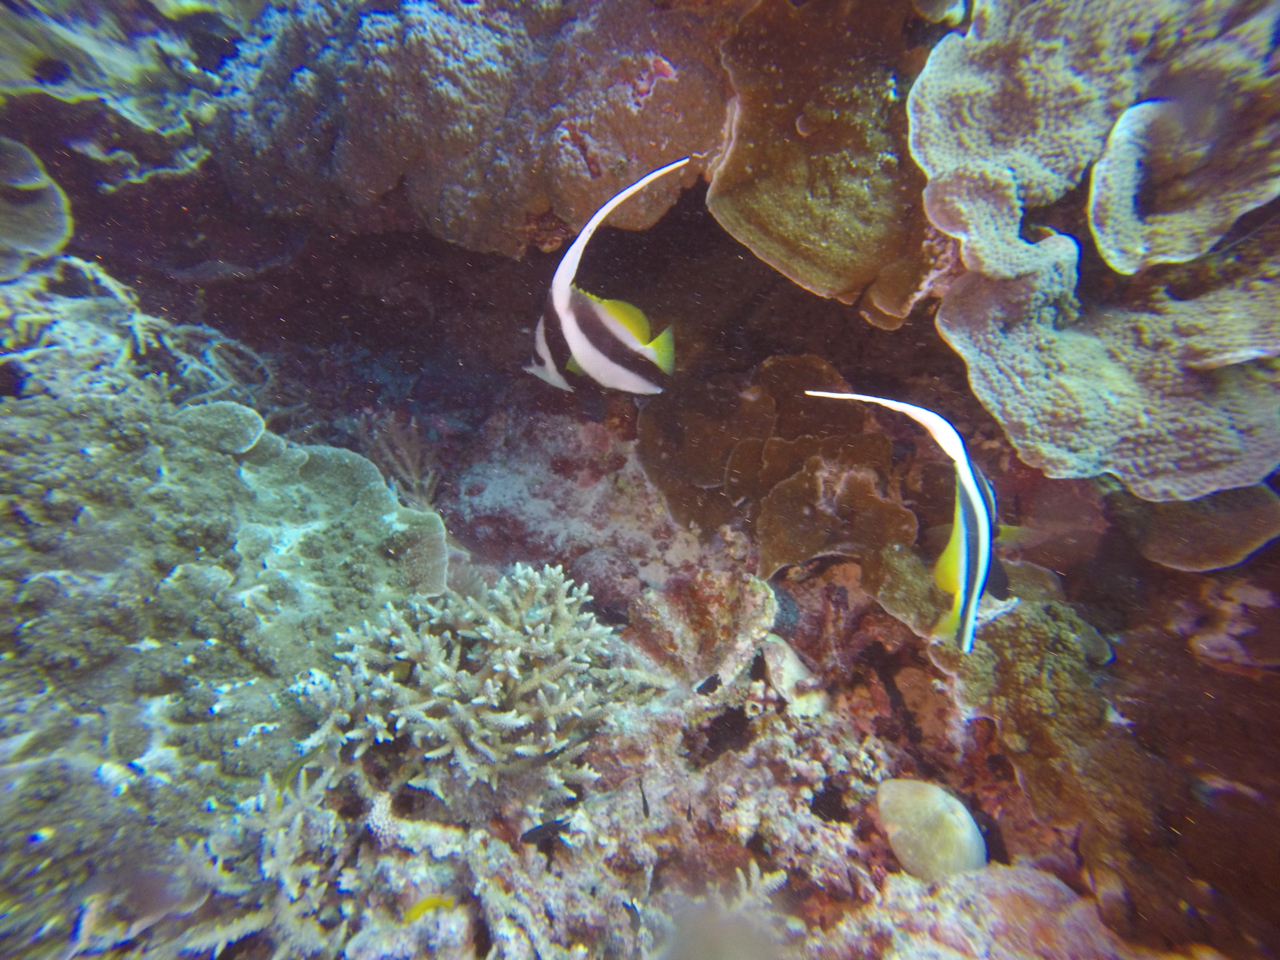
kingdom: Animalia
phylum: Chordata
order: Perciformes
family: Chaetodontidae
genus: Heniochus
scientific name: Heniochus acuminatus
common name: Pennant coralfish
